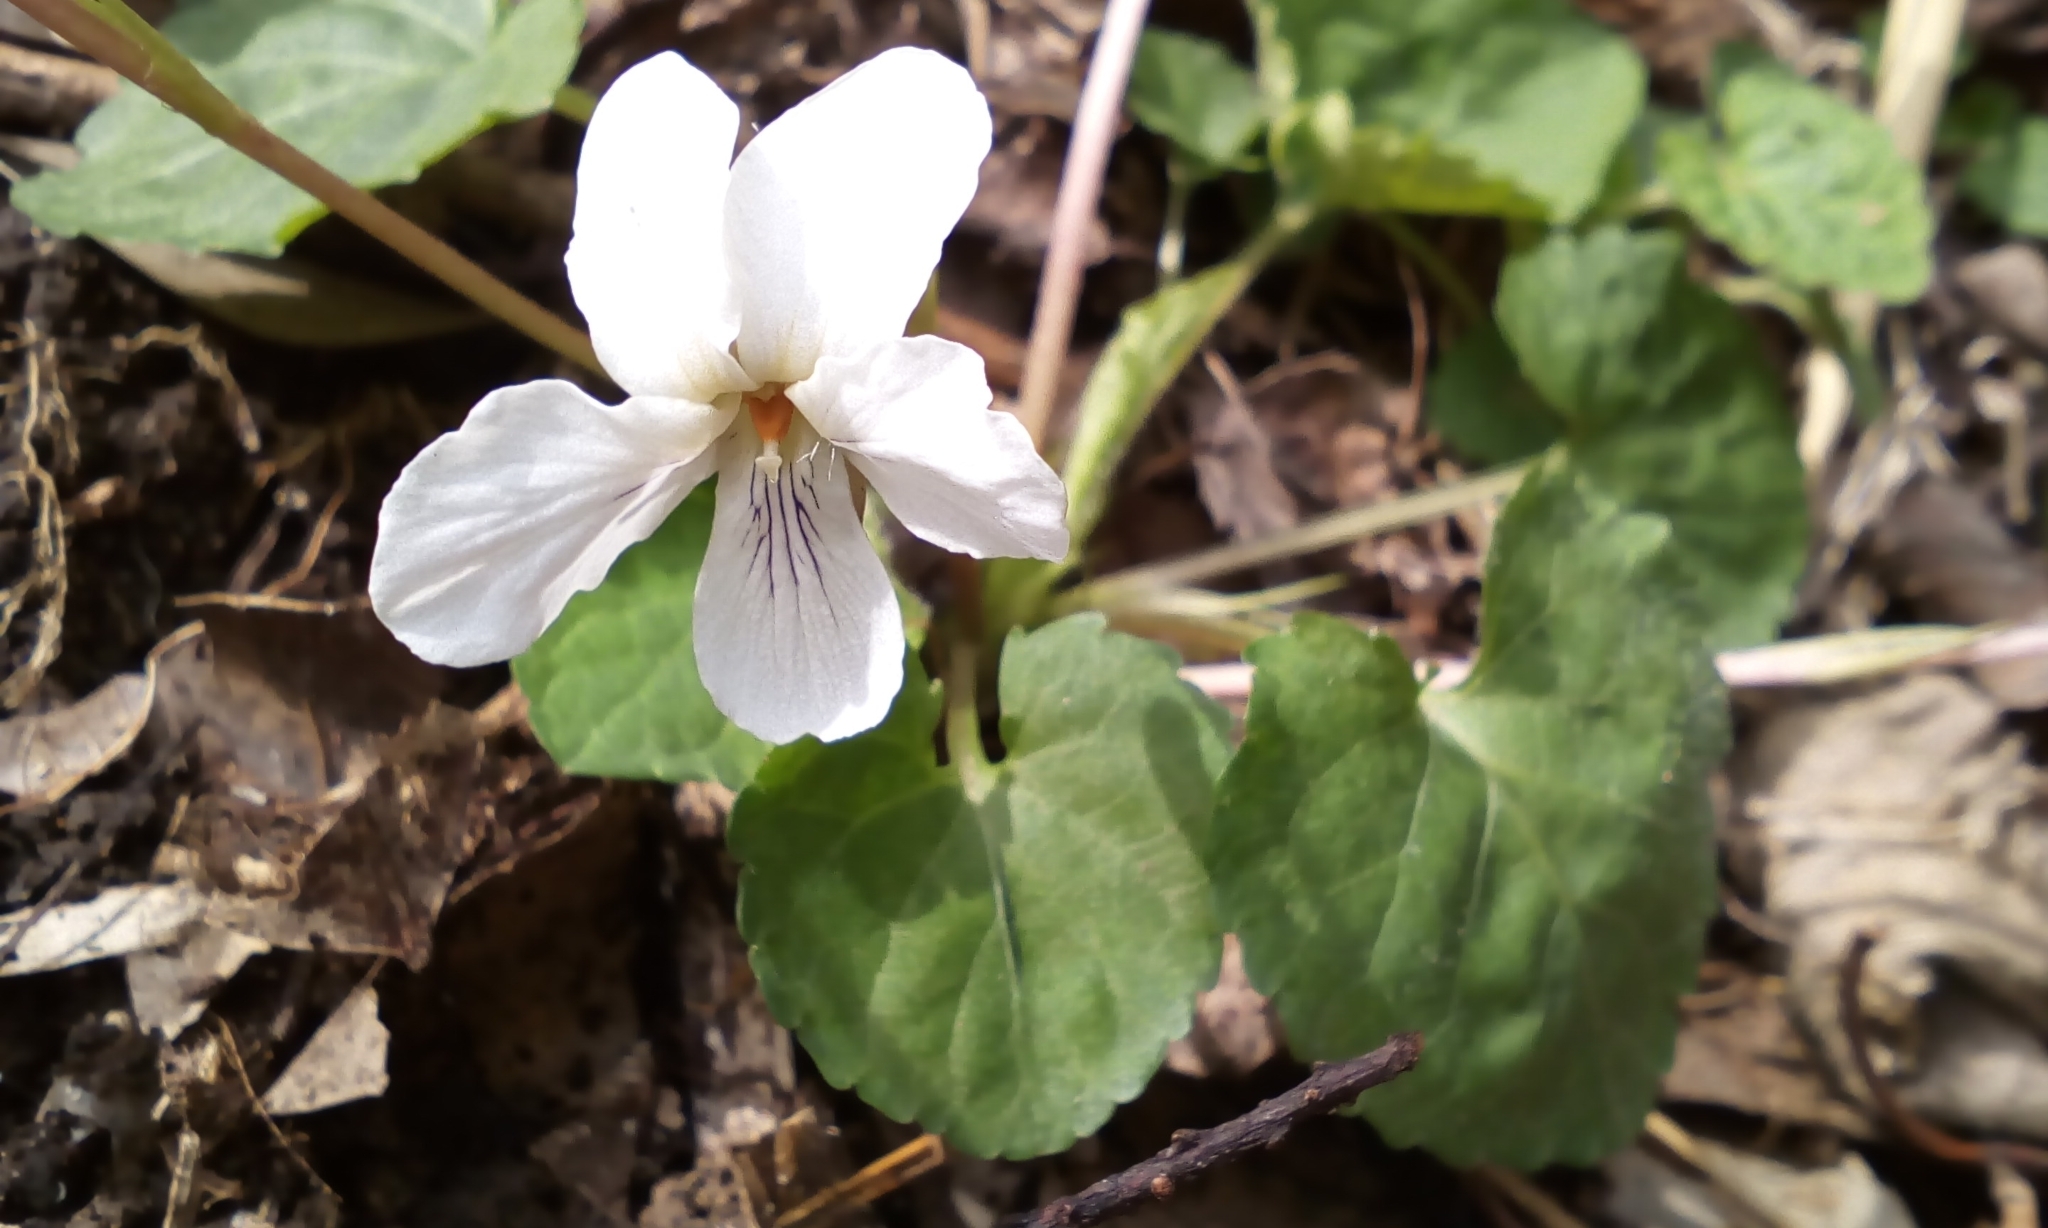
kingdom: Plantae
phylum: Tracheophyta
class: Magnoliopsida
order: Malpighiales
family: Violaceae
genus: Viola
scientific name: Viola keiskei
